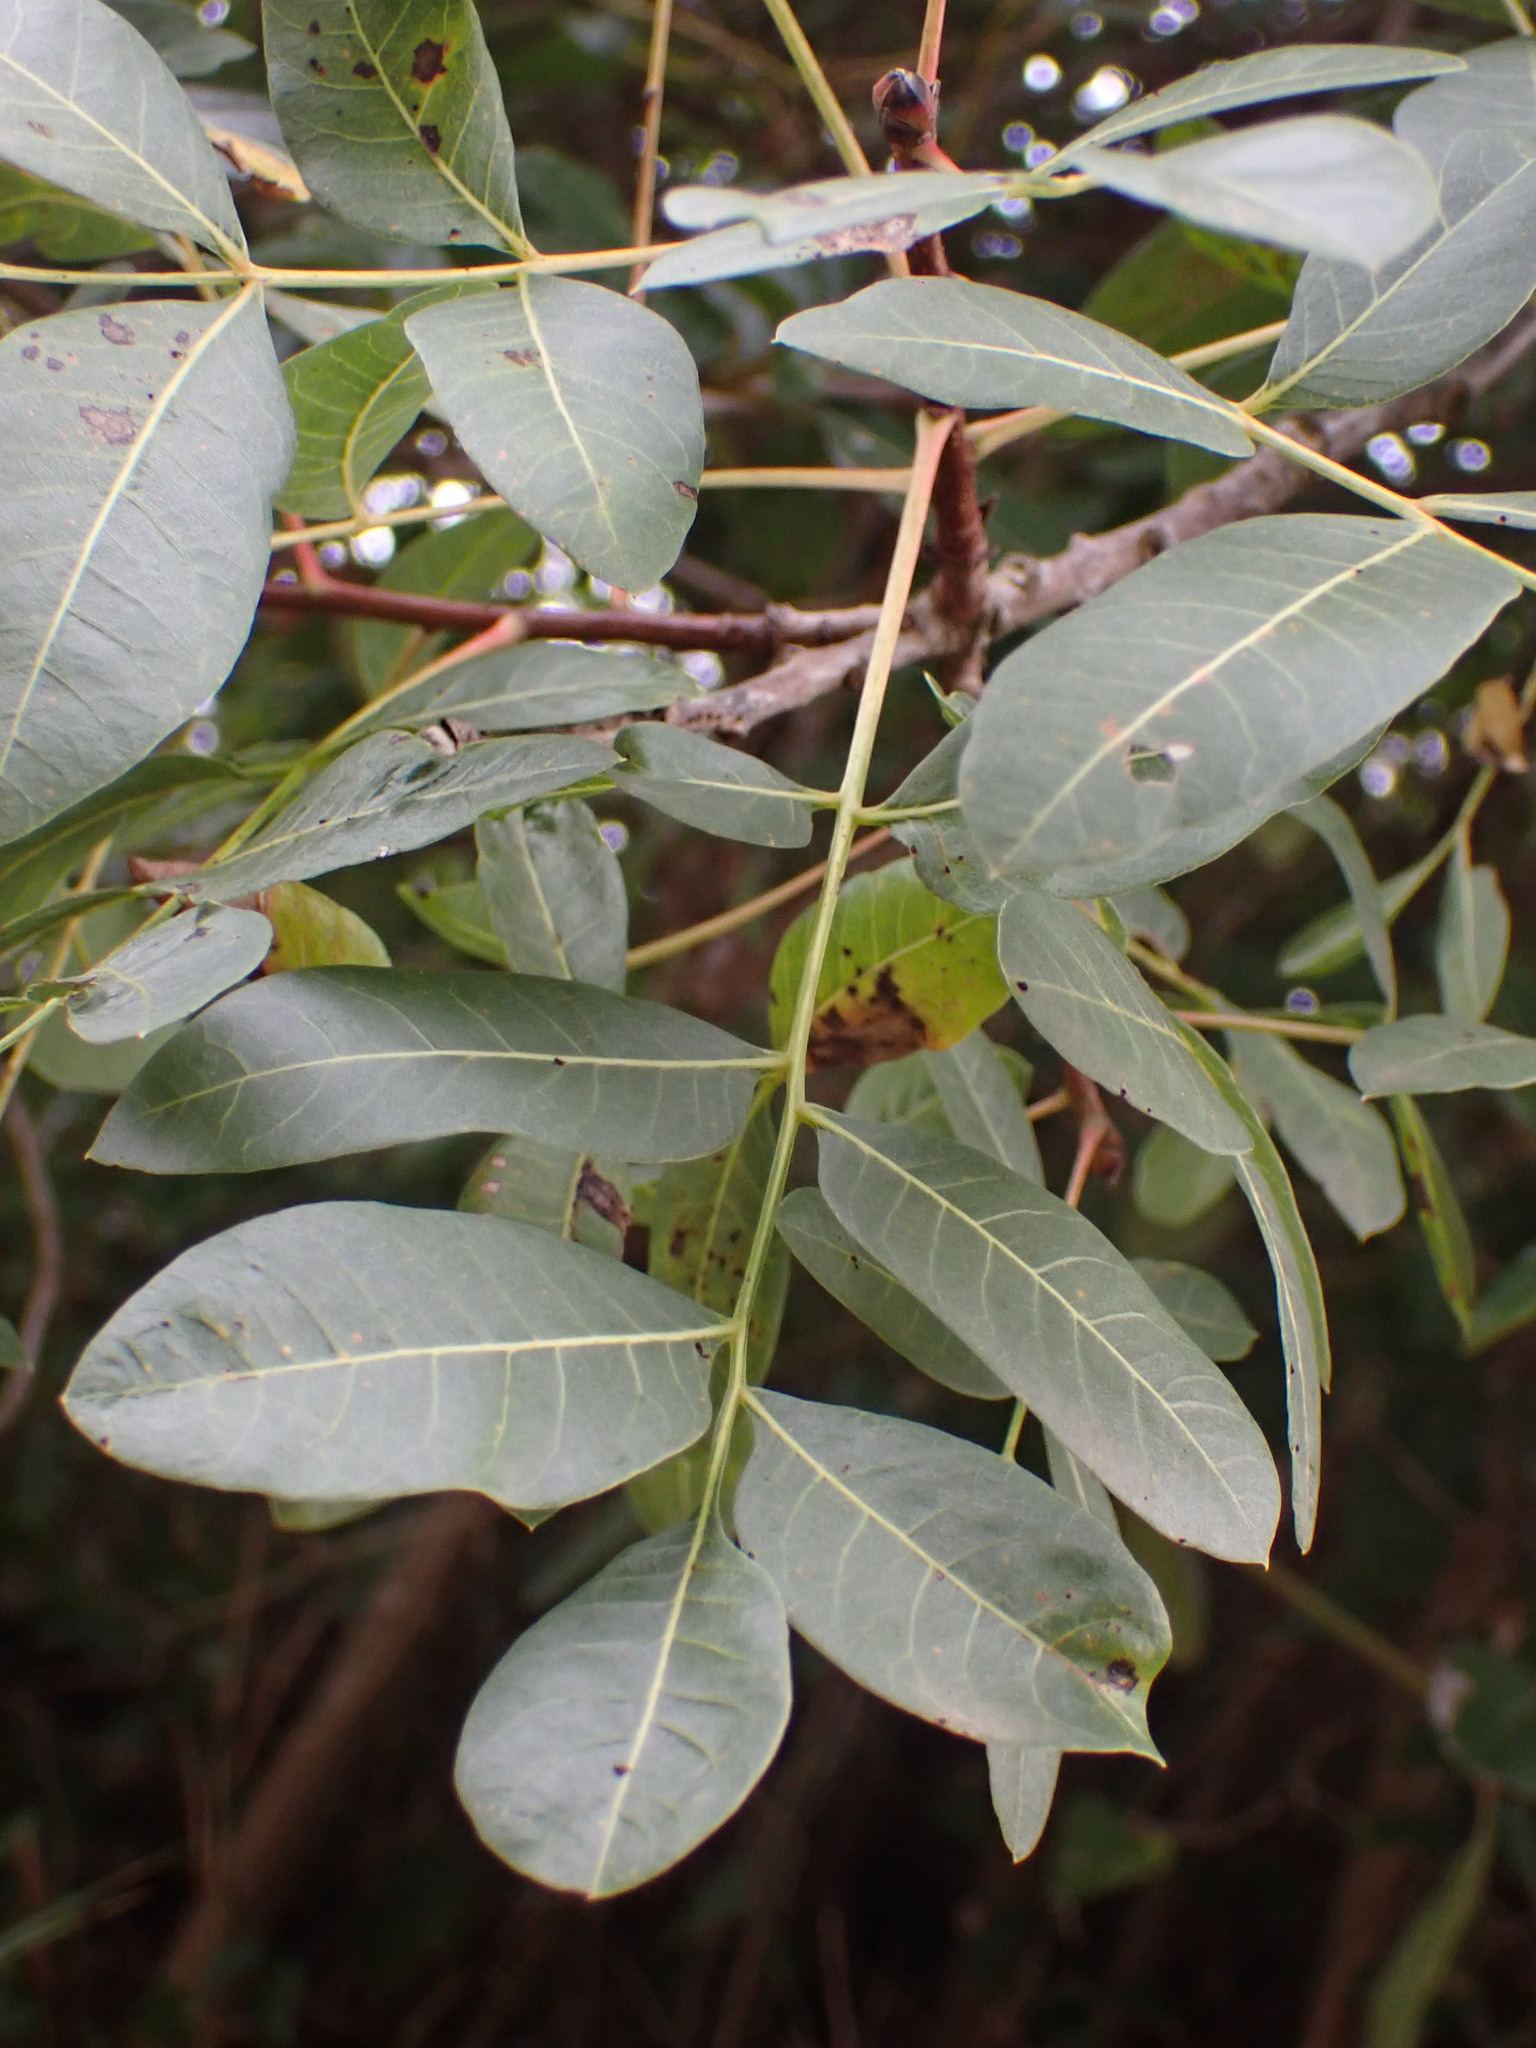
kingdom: Plantae
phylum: Tracheophyta
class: Magnoliopsida
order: Sapindales
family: Anacardiaceae
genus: Pistacia
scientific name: Pistacia terebinthus
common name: Terebinth
